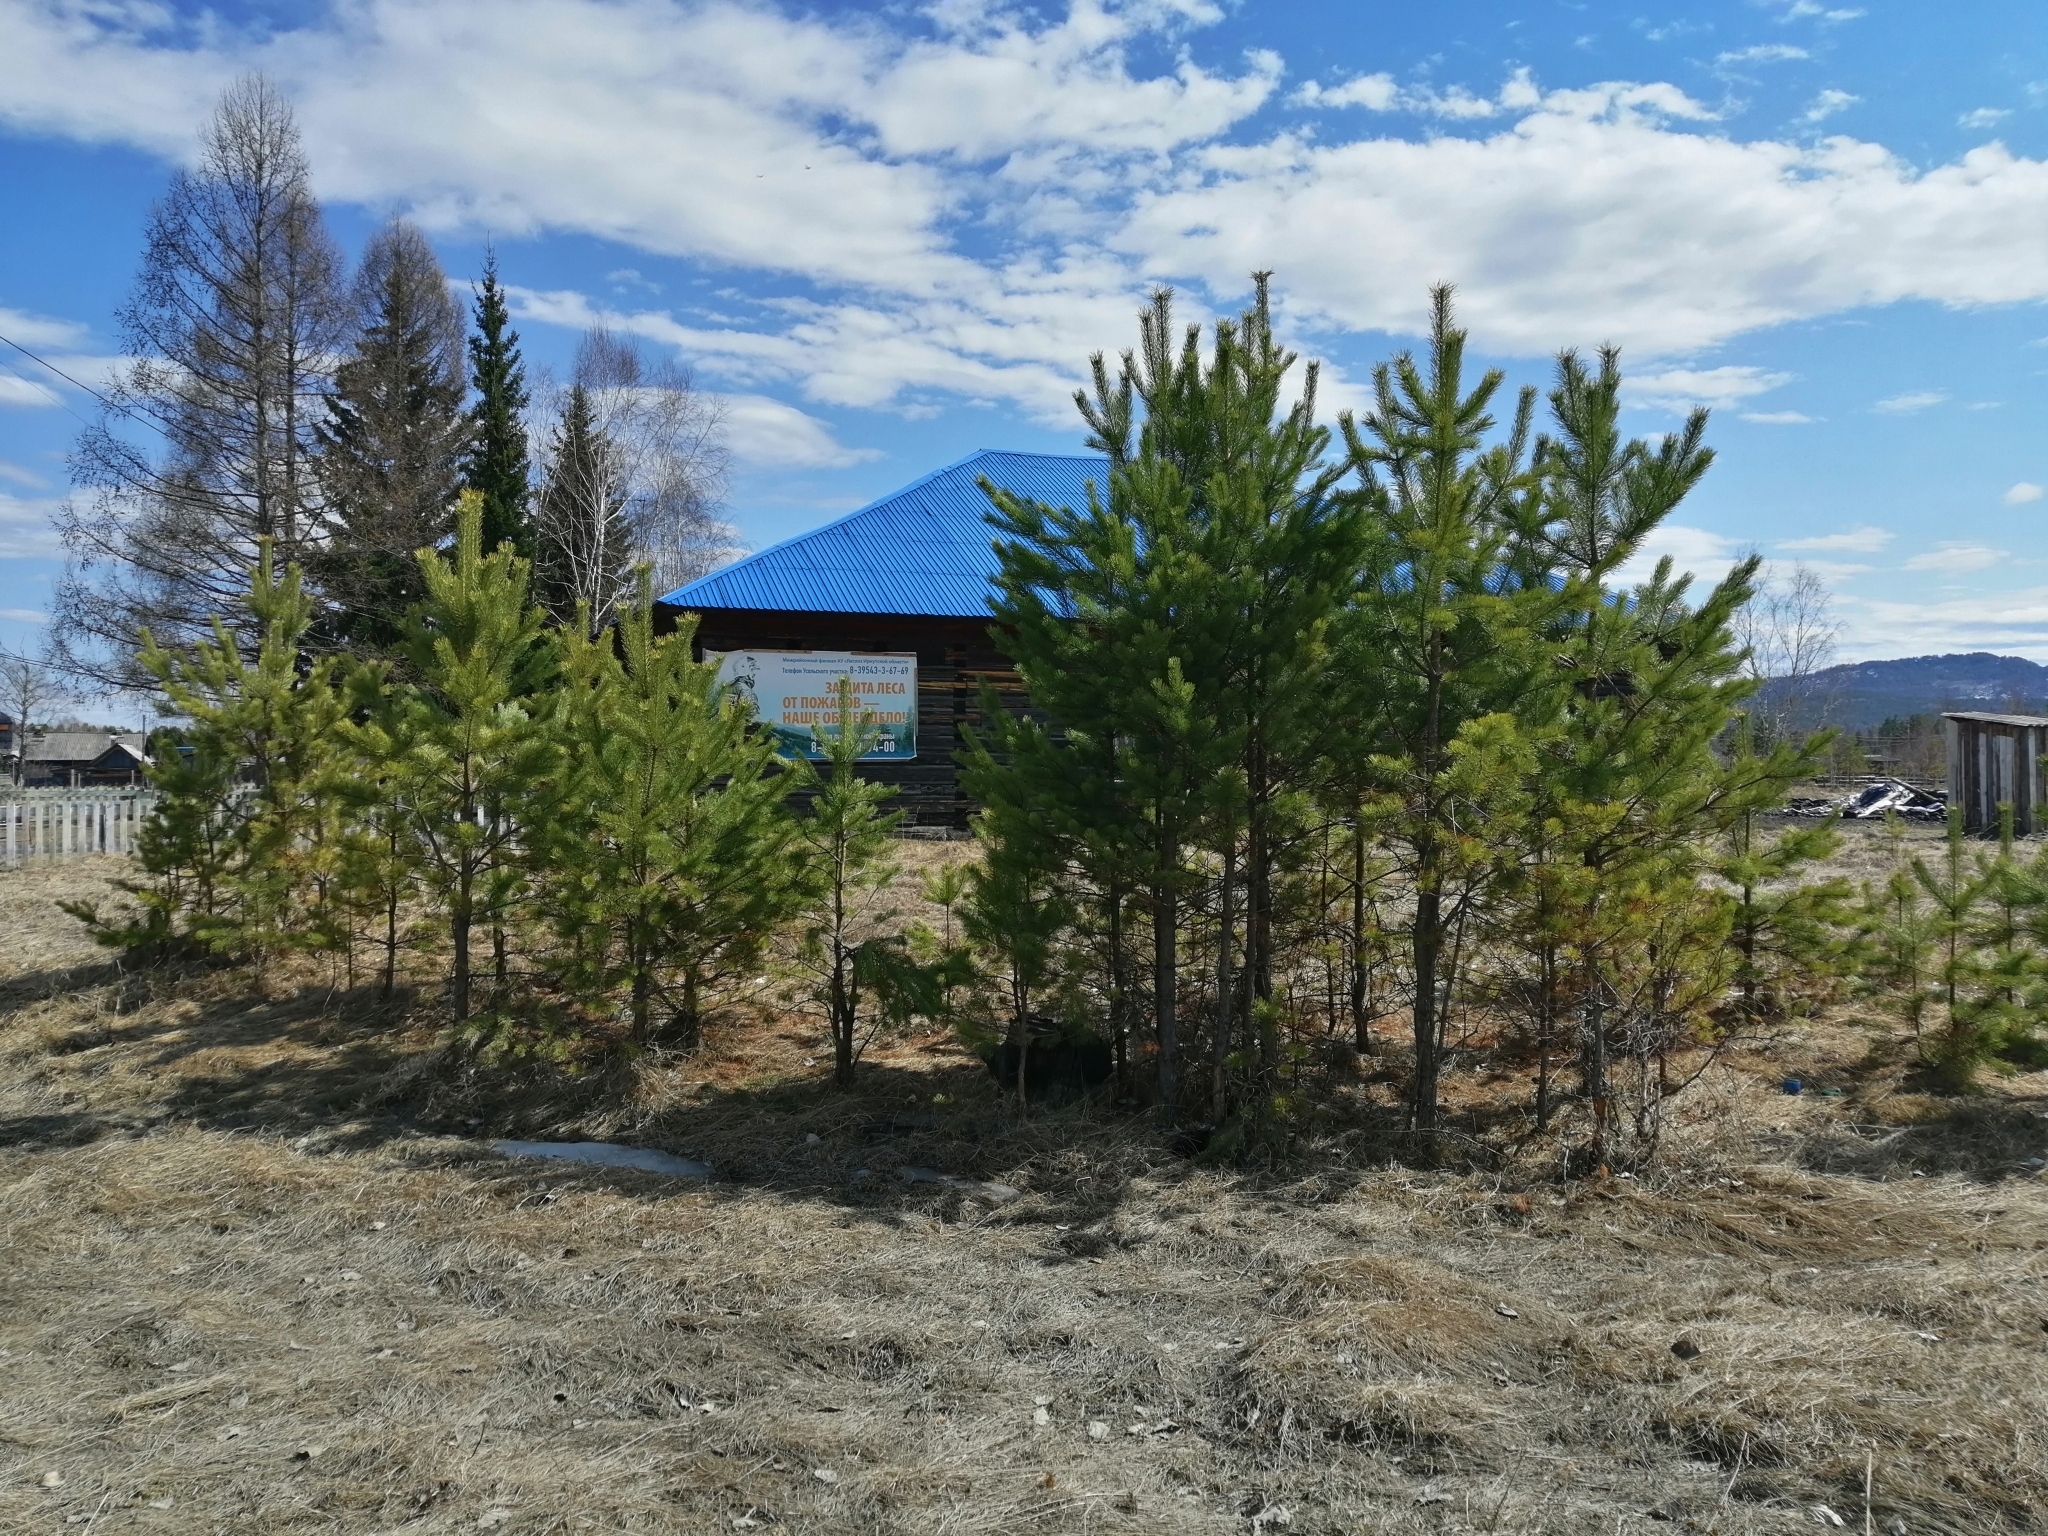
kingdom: Plantae
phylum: Tracheophyta
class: Pinopsida
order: Pinales
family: Pinaceae
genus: Pinus
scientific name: Pinus sylvestris
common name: Scots pine
